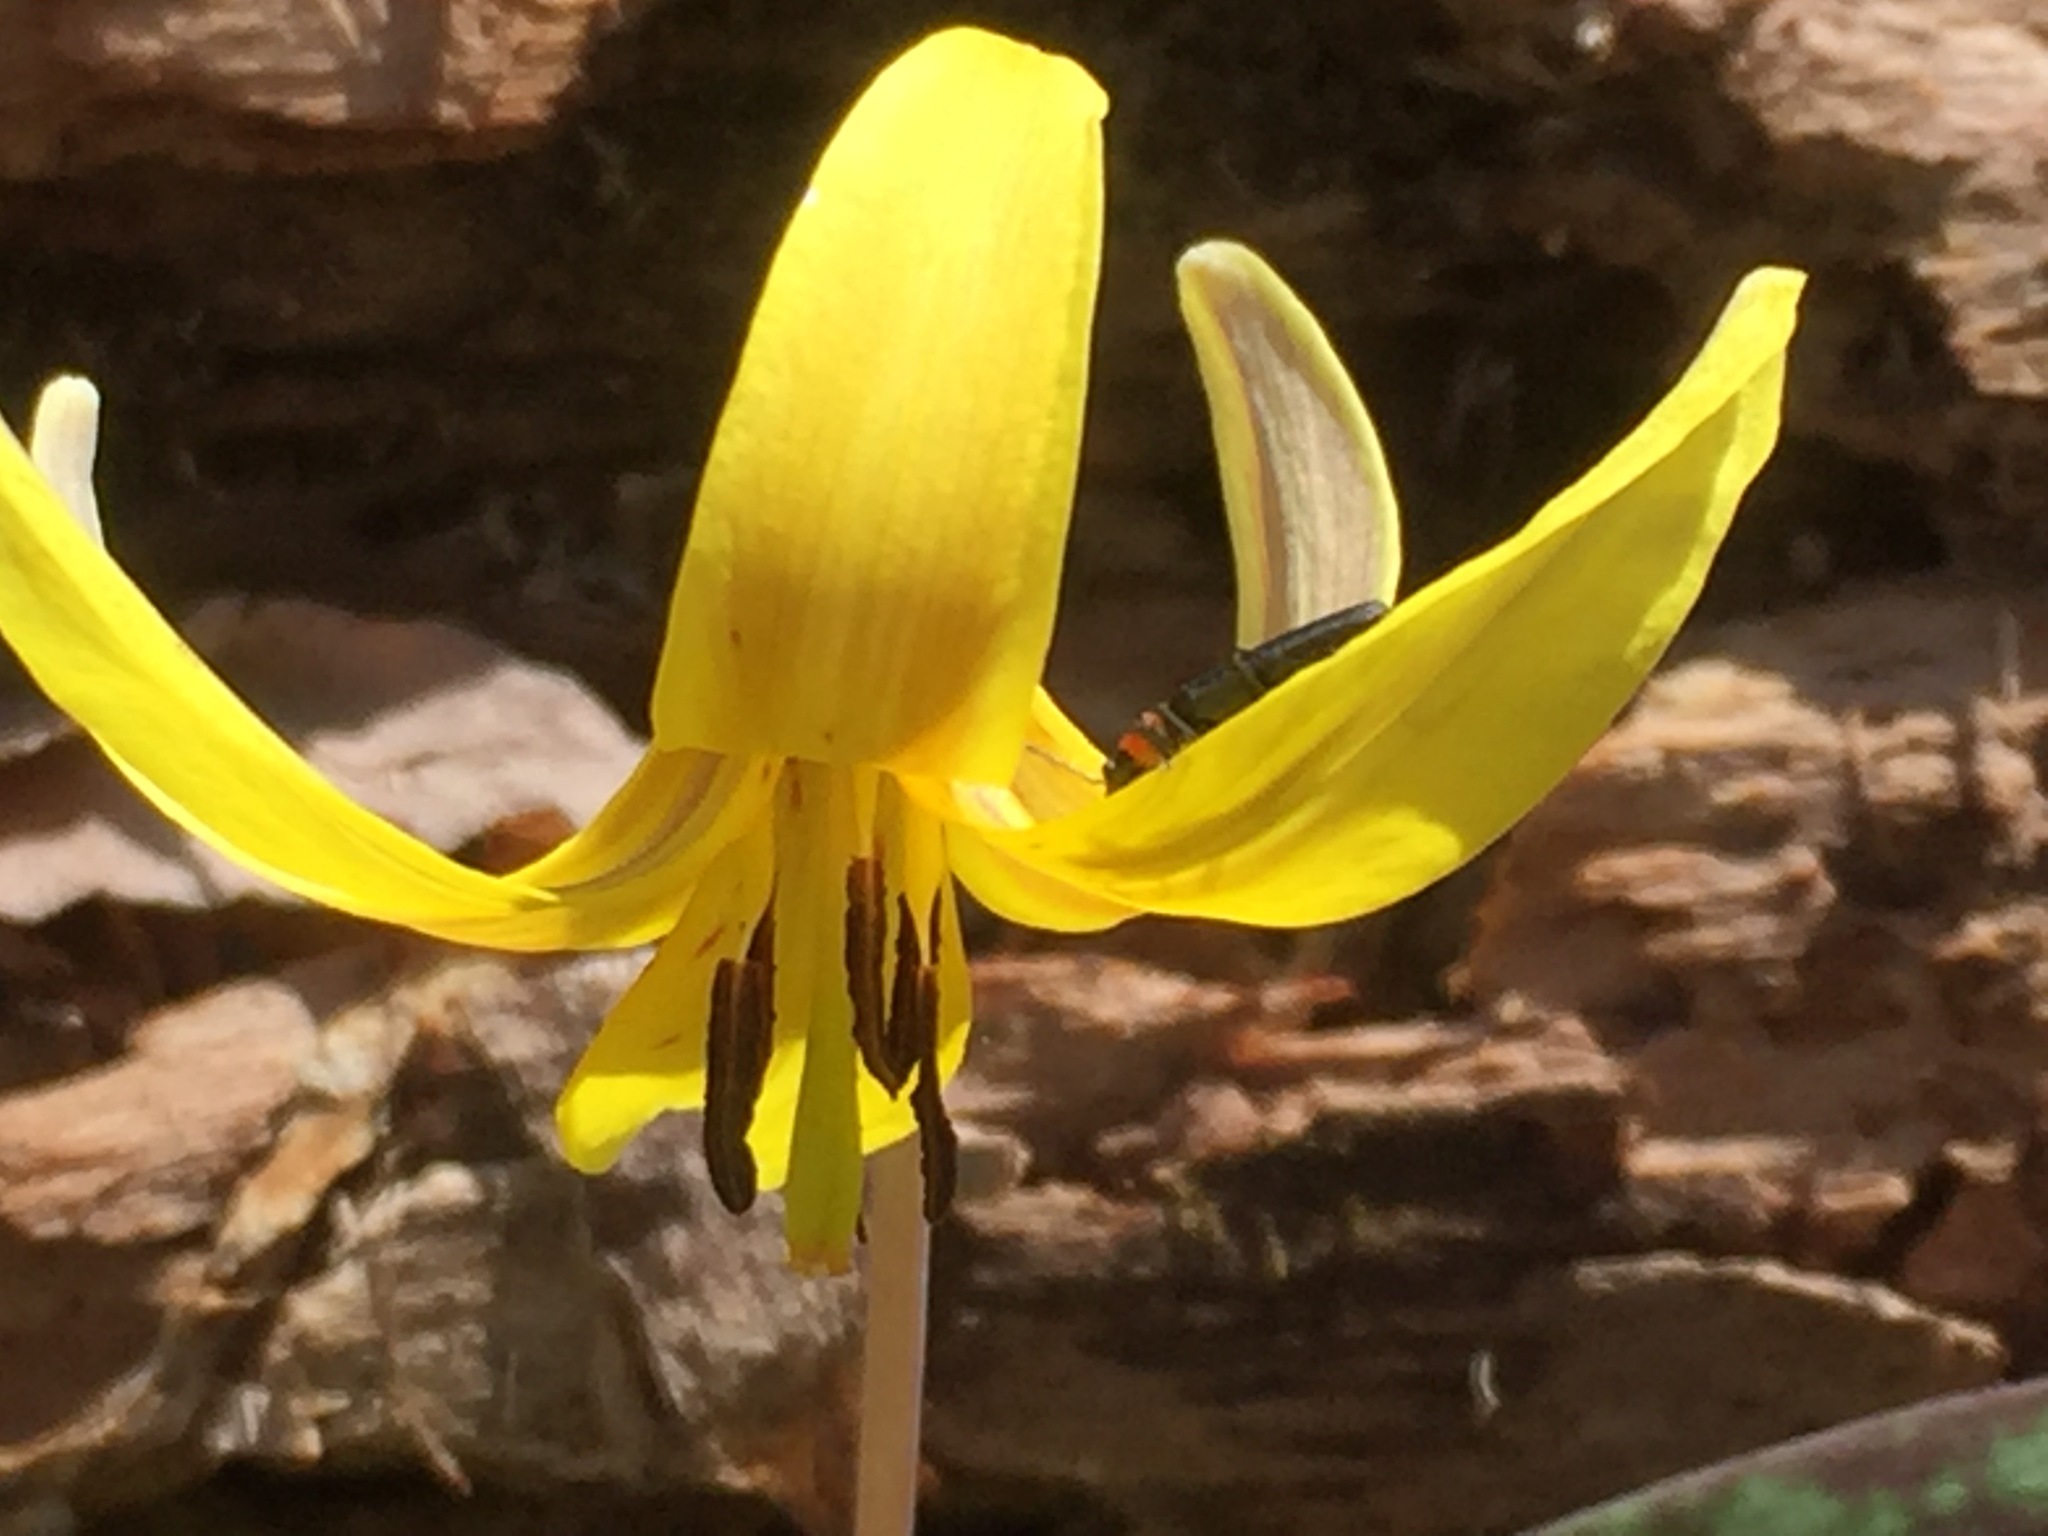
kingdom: Animalia
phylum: Arthropoda
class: Insecta
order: Coleoptera
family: Oedemeridae
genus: Ischnomera
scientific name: Ischnomera
